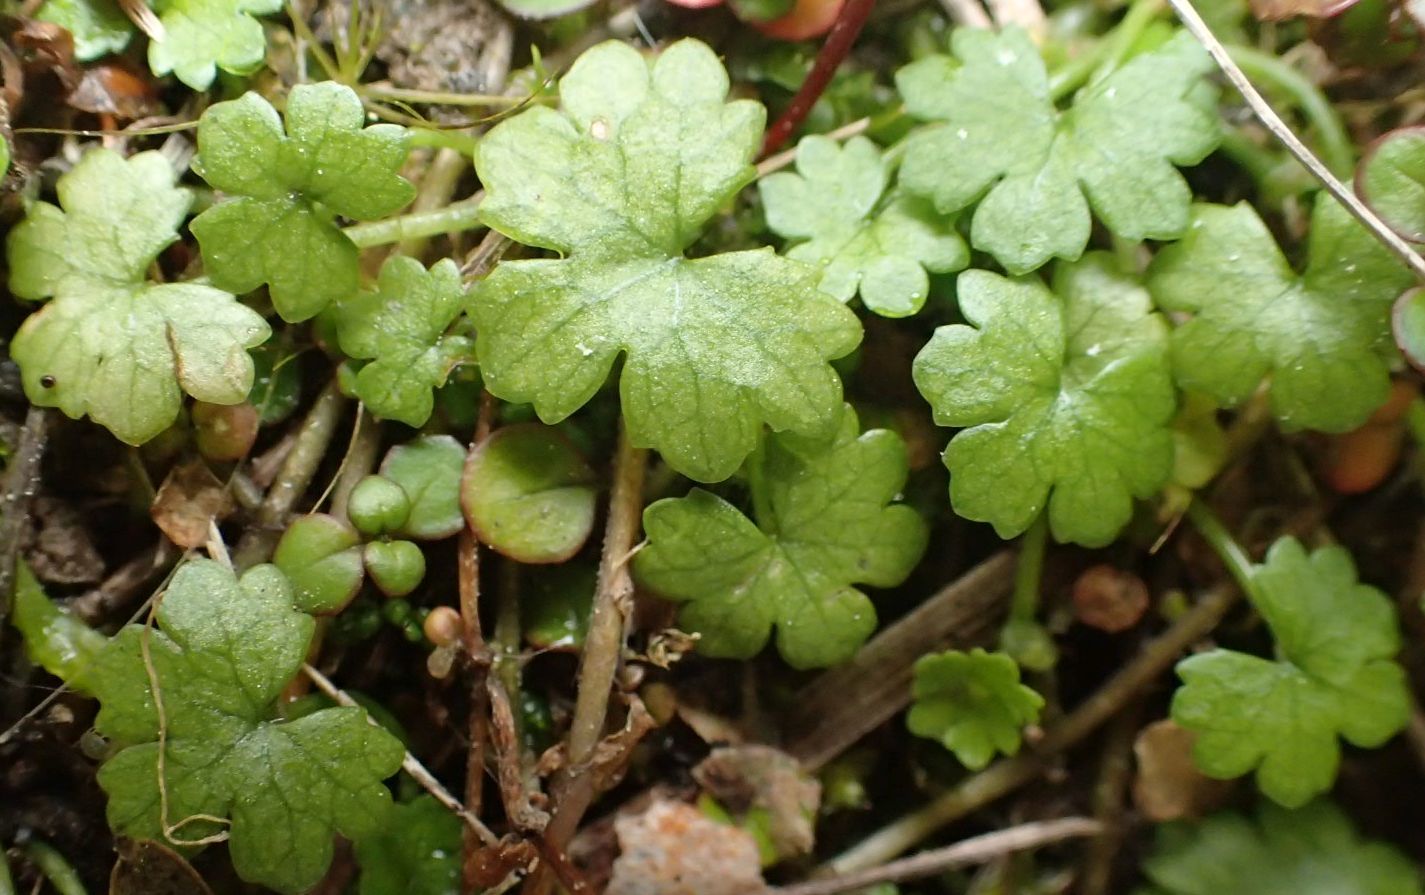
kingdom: Plantae
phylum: Tracheophyta
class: Magnoliopsida
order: Apiales
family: Araliaceae
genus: Hydrocotyle
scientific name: Hydrocotyle microphylla
